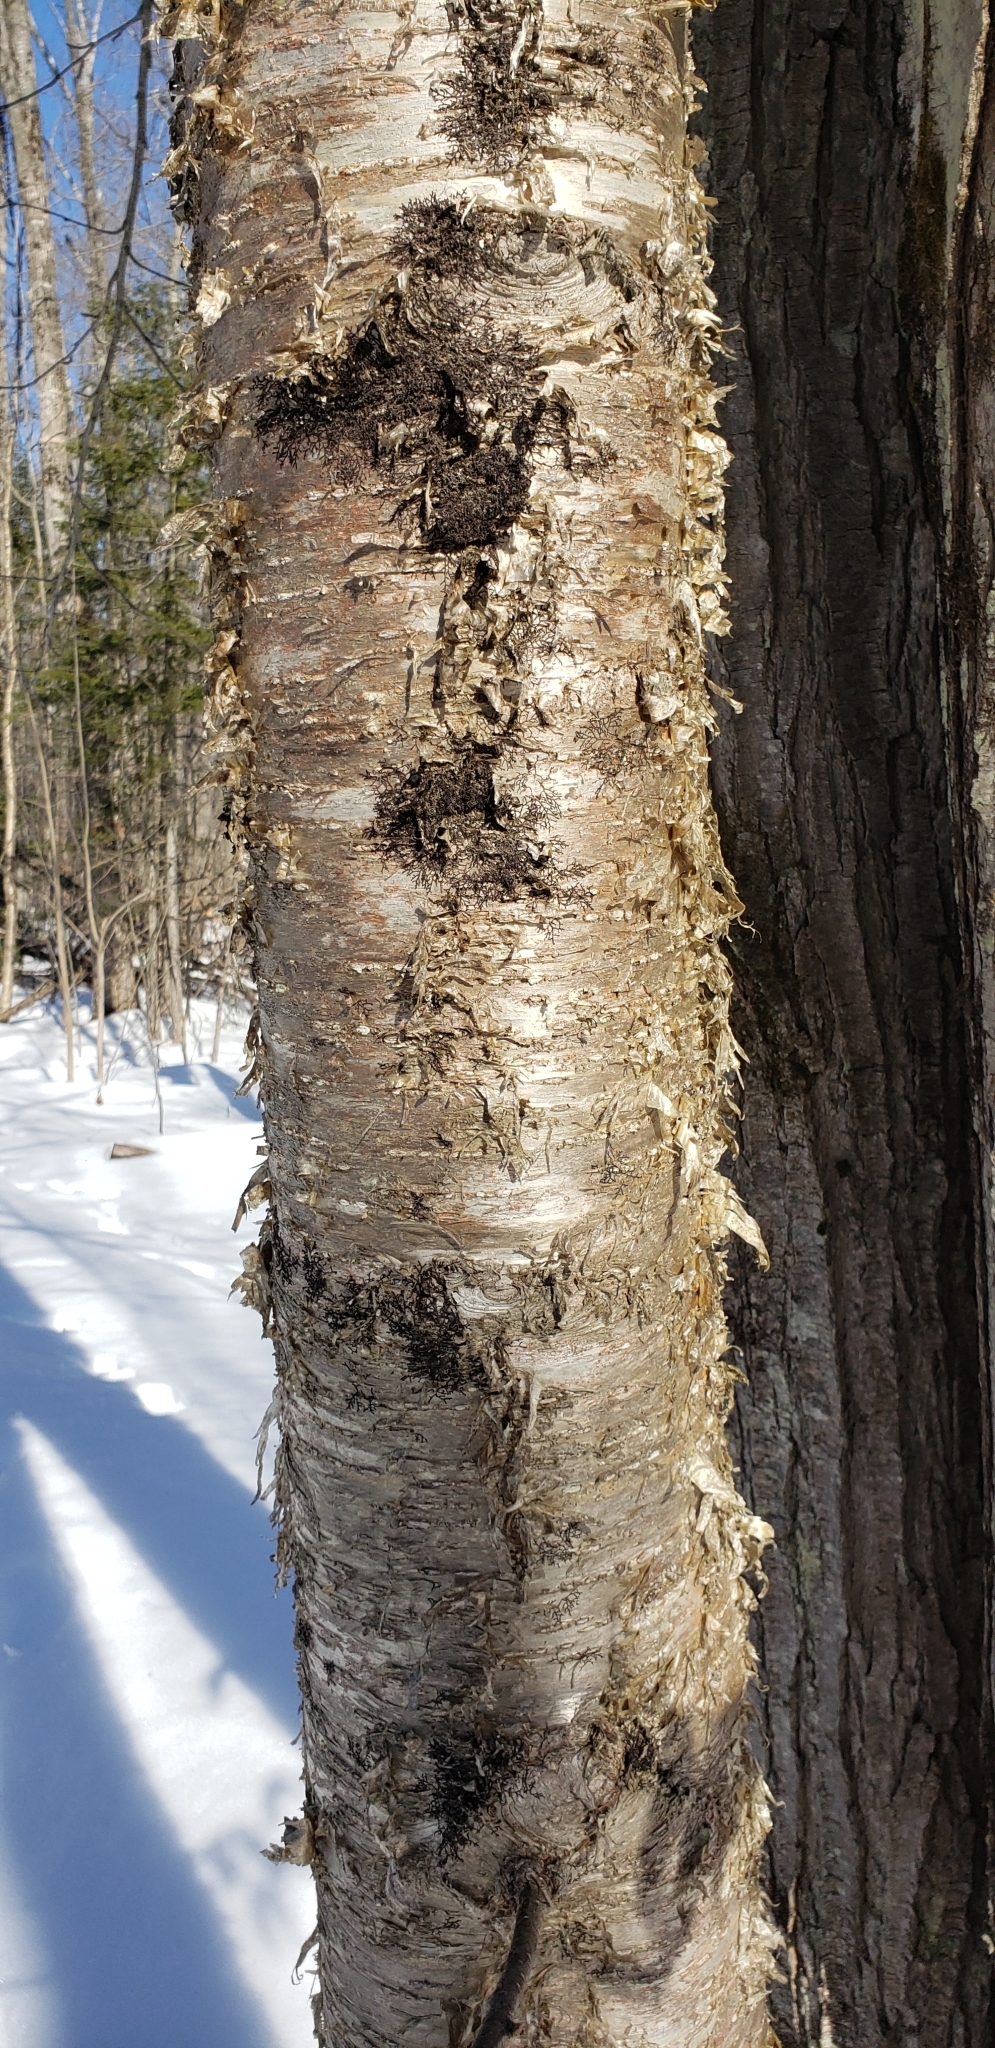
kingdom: Plantae
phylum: Tracheophyta
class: Magnoliopsida
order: Fagales
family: Betulaceae
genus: Betula
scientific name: Betula alleghaniensis
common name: Yellow birch
